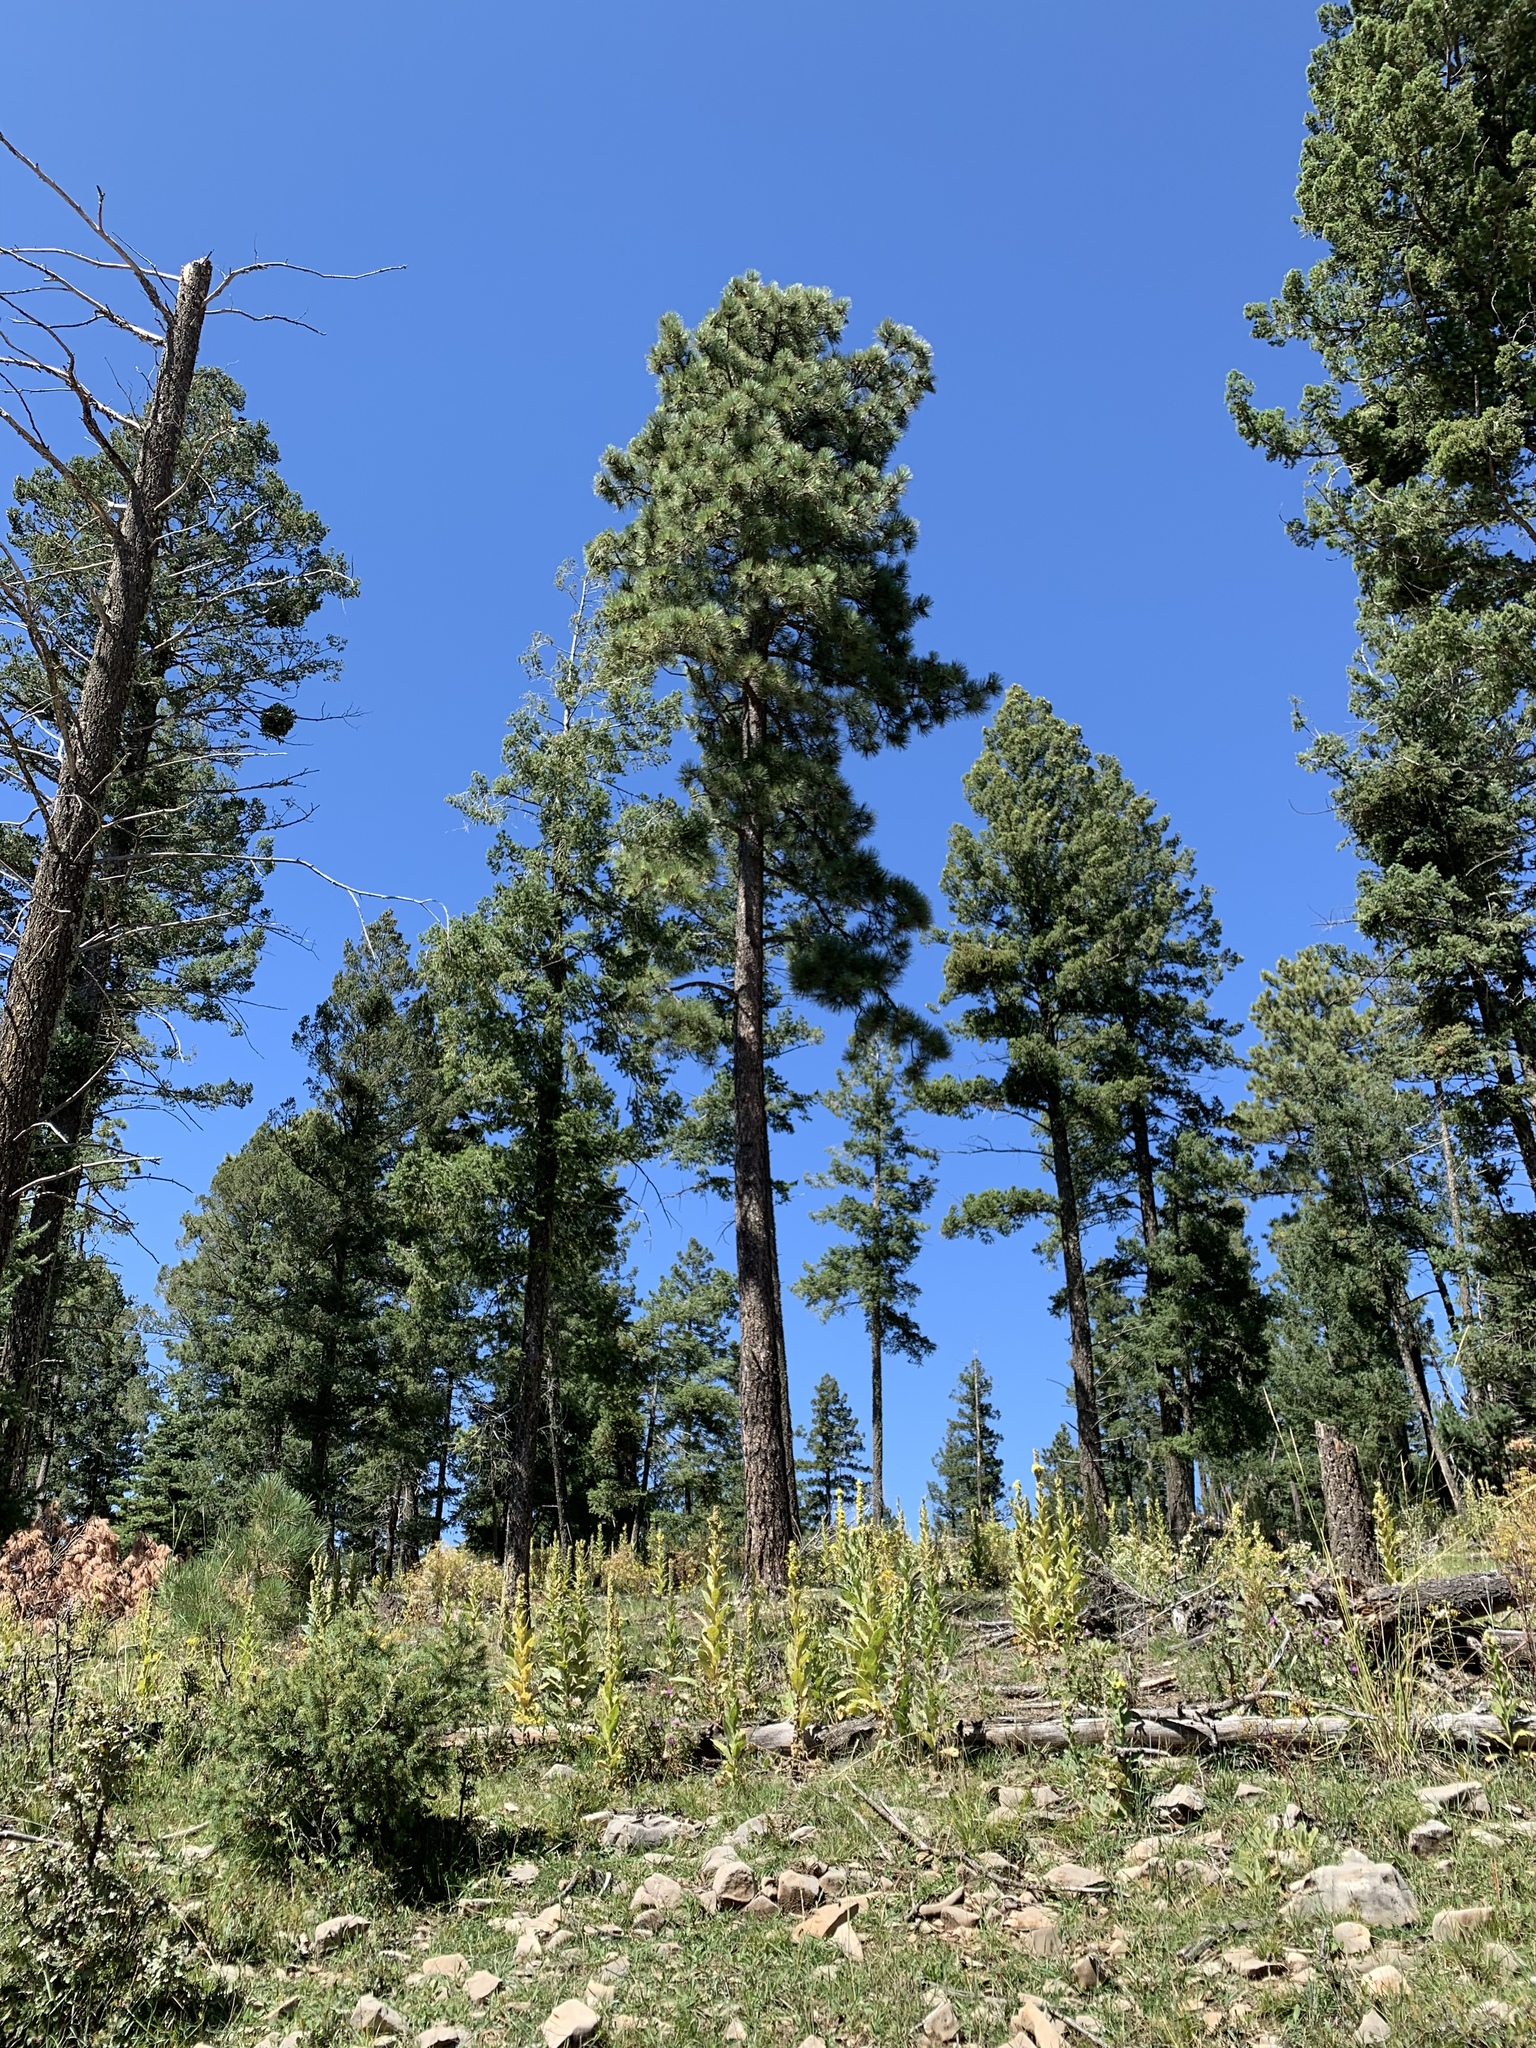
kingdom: Plantae
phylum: Tracheophyta
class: Pinopsida
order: Pinales
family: Pinaceae
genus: Pinus
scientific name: Pinus ponderosa
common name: Western yellow-pine
